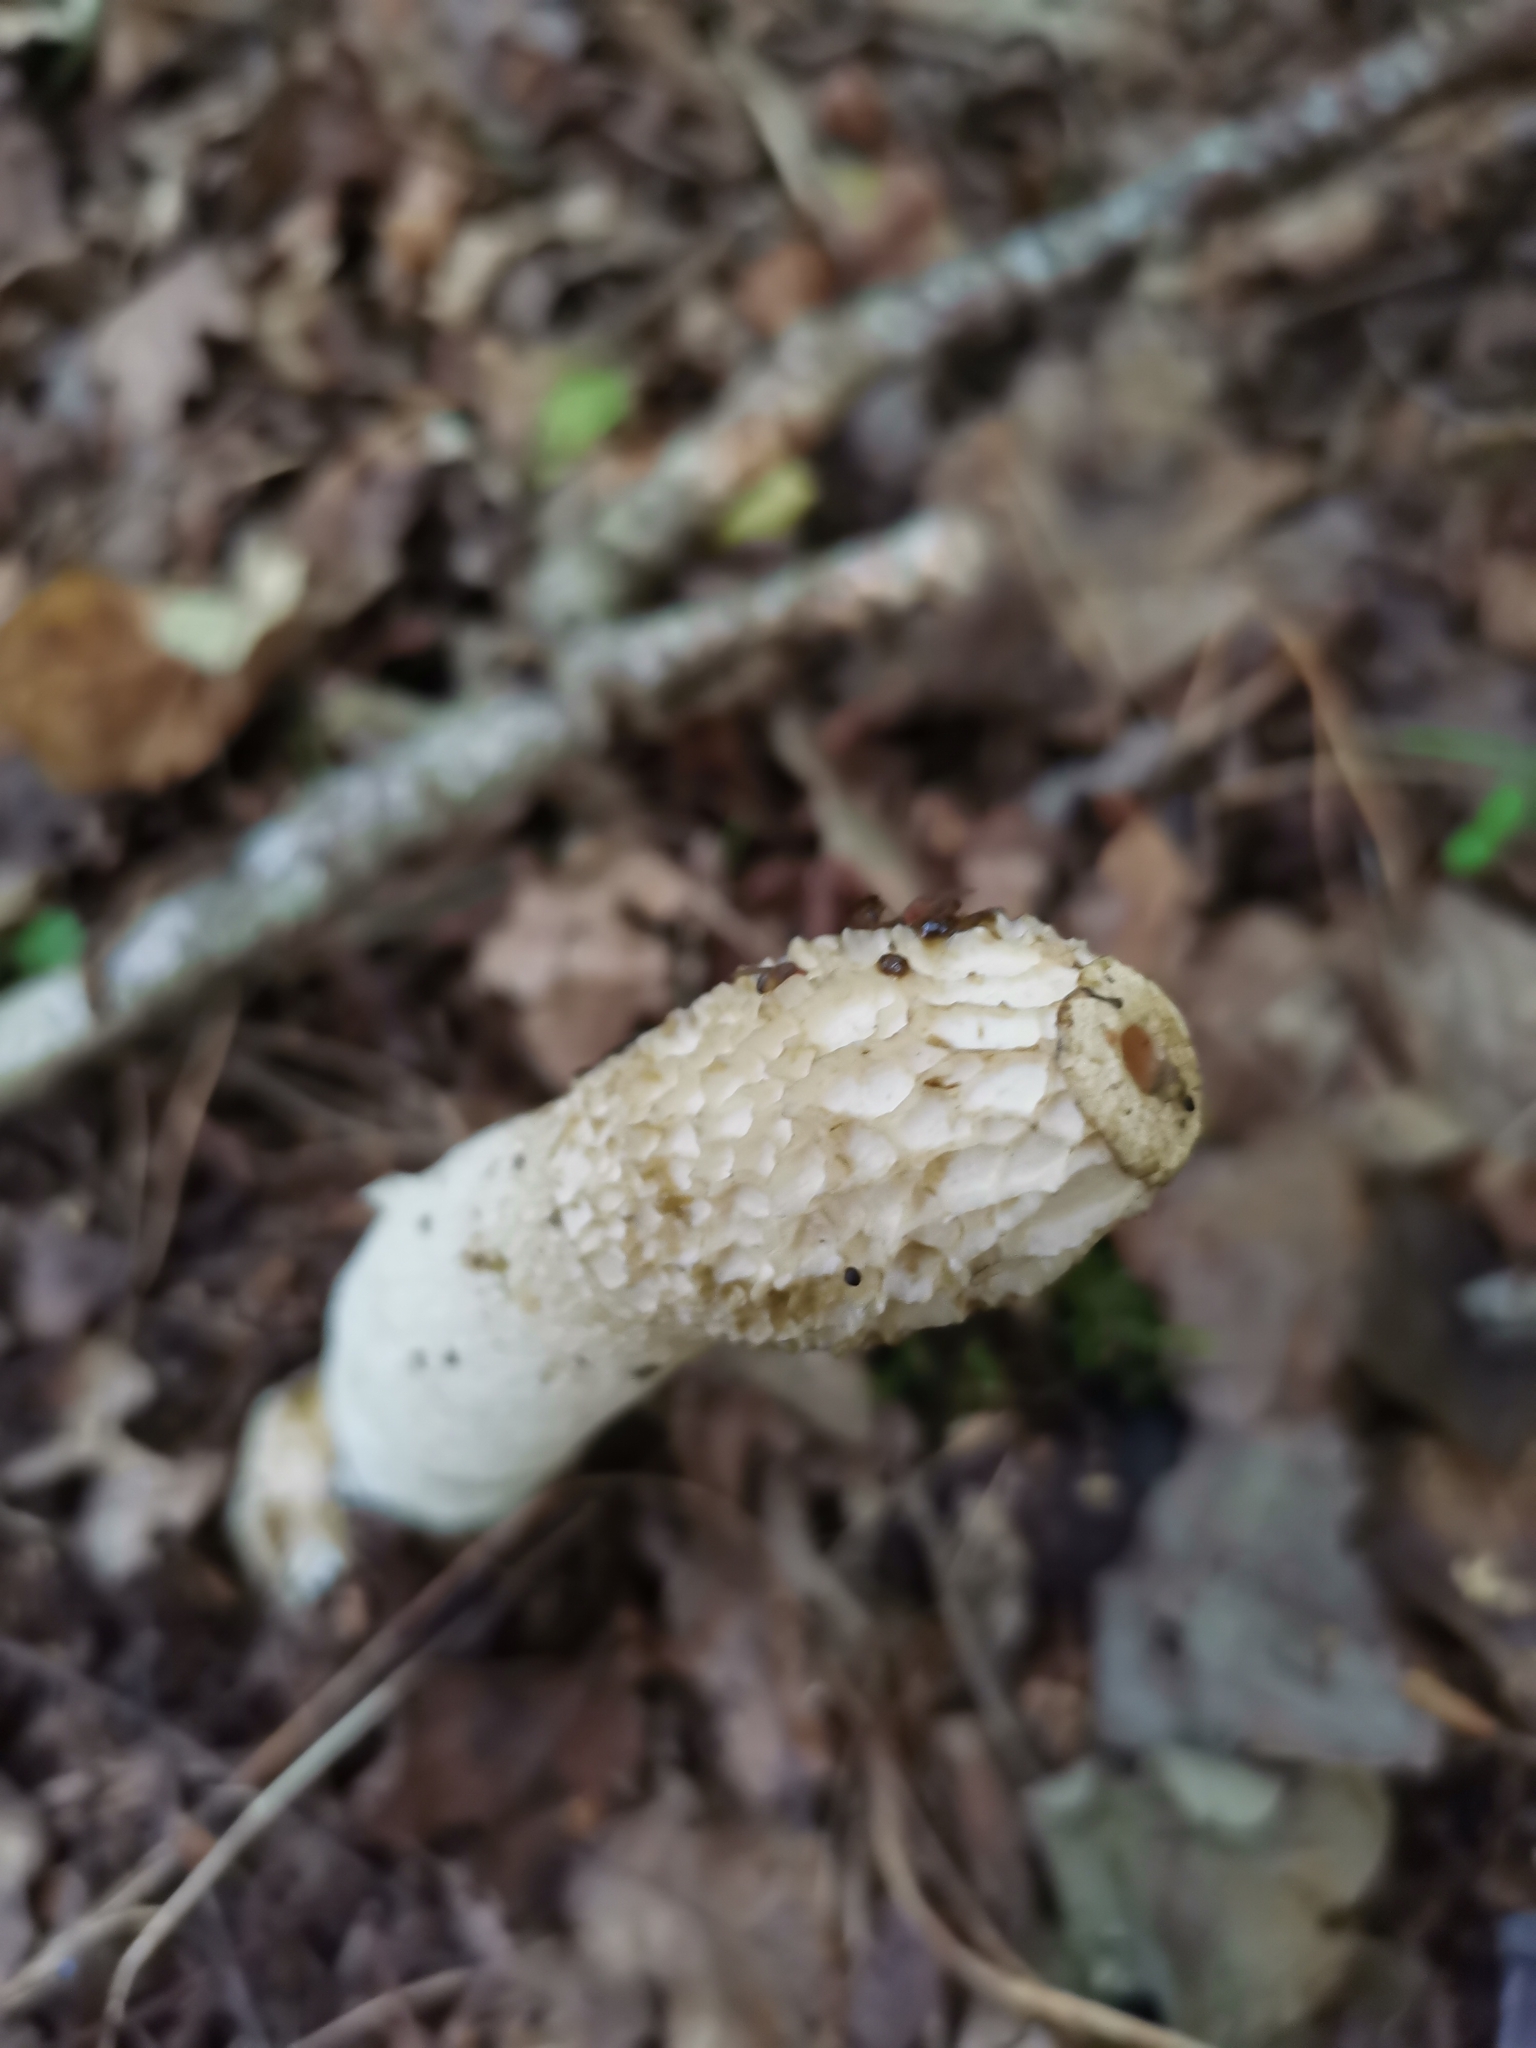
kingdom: Fungi
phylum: Basidiomycota
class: Agaricomycetes
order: Phallales
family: Phallaceae
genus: Phallus
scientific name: Phallus impudicus
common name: Common stinkhorn
